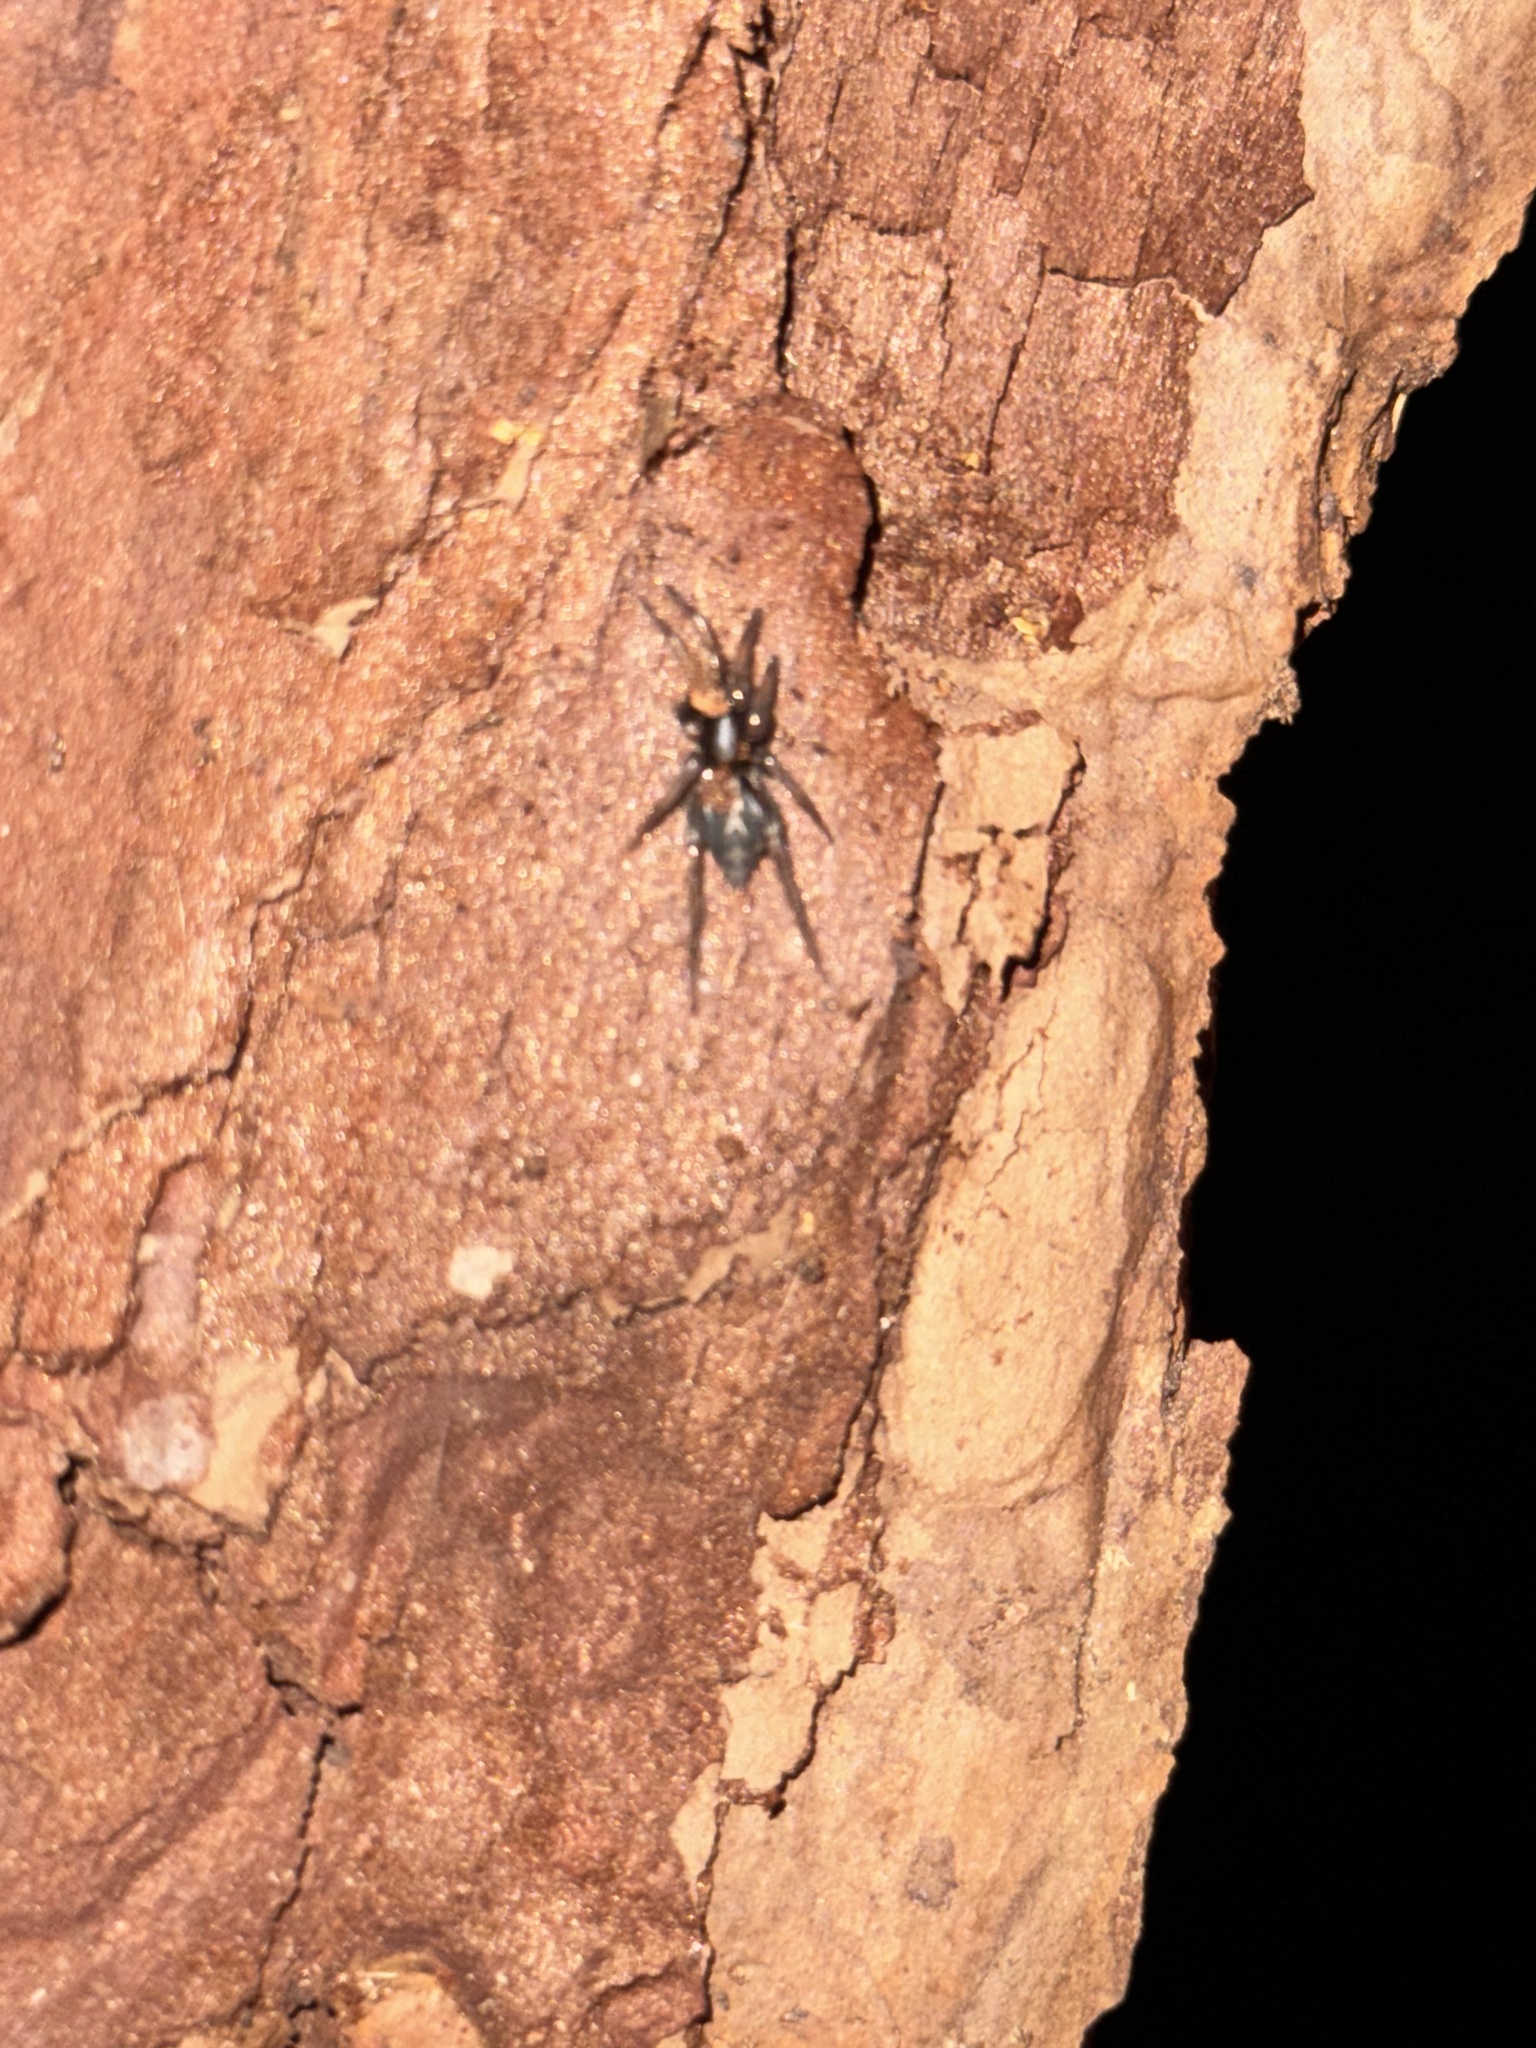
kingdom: Animalia
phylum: Arthropoda
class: Arachnida
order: Araneae
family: Gnaphosidae
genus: Herpyllus
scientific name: Herpyllus ecclesiasticus
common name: Eastern parson spider
